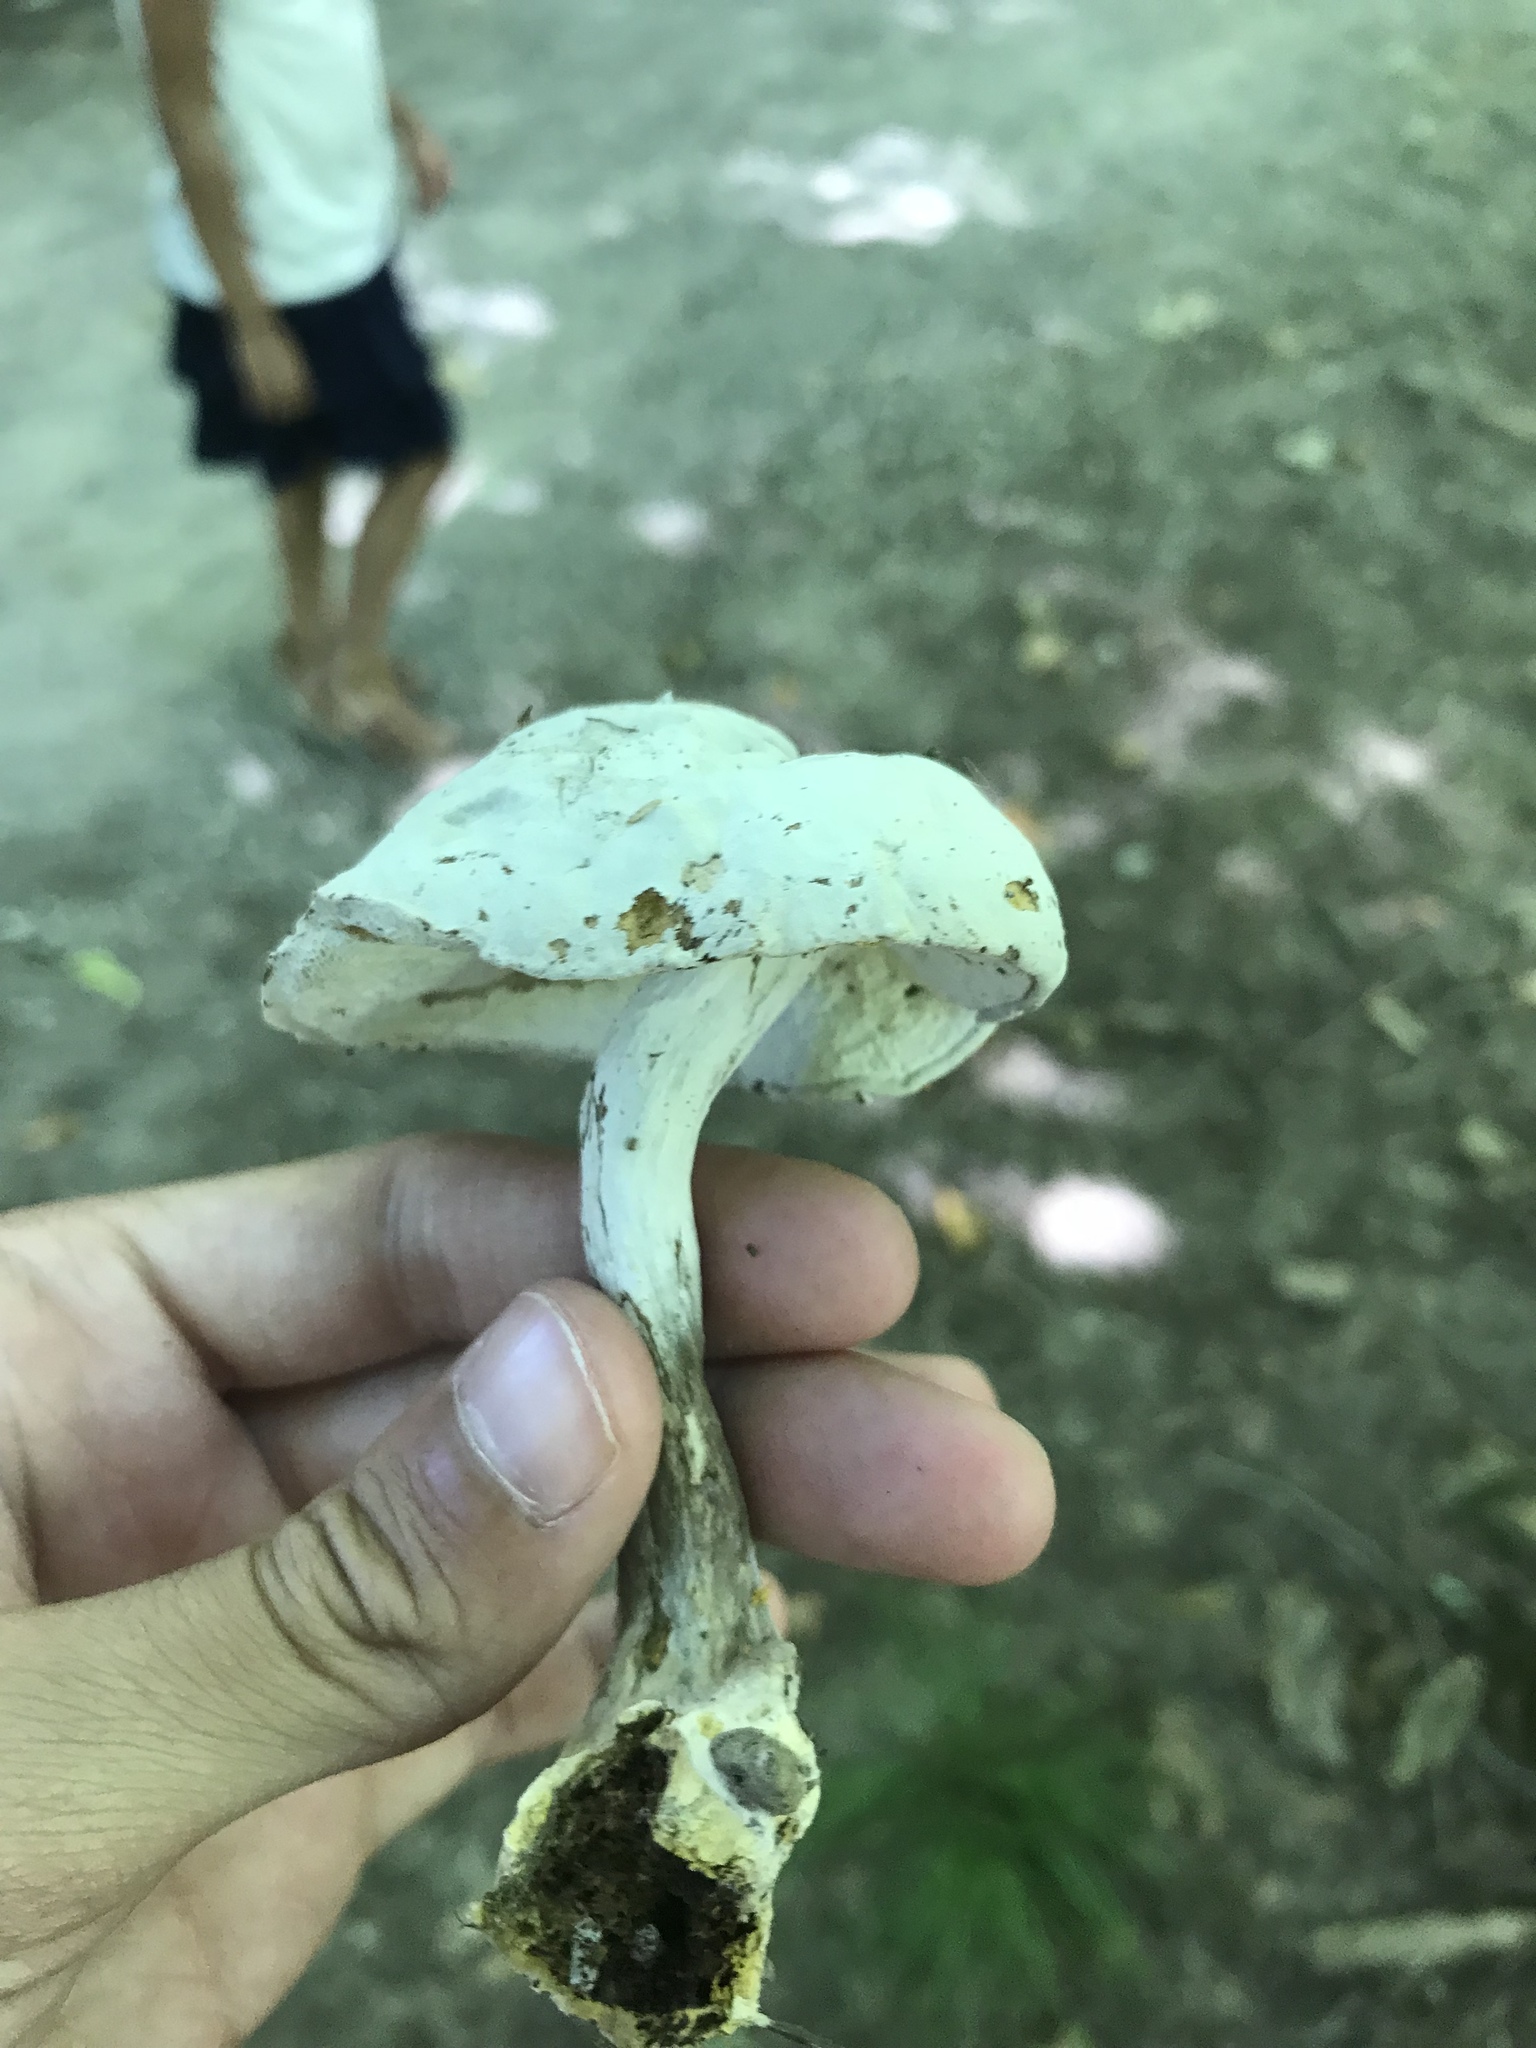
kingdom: Fungi
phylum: Ascomycota
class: Sordariomycetes
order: Hypocreales
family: Hypocreaceae
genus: Hypomyces
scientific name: Hypomyces chrysospermus
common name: Bolete mould
